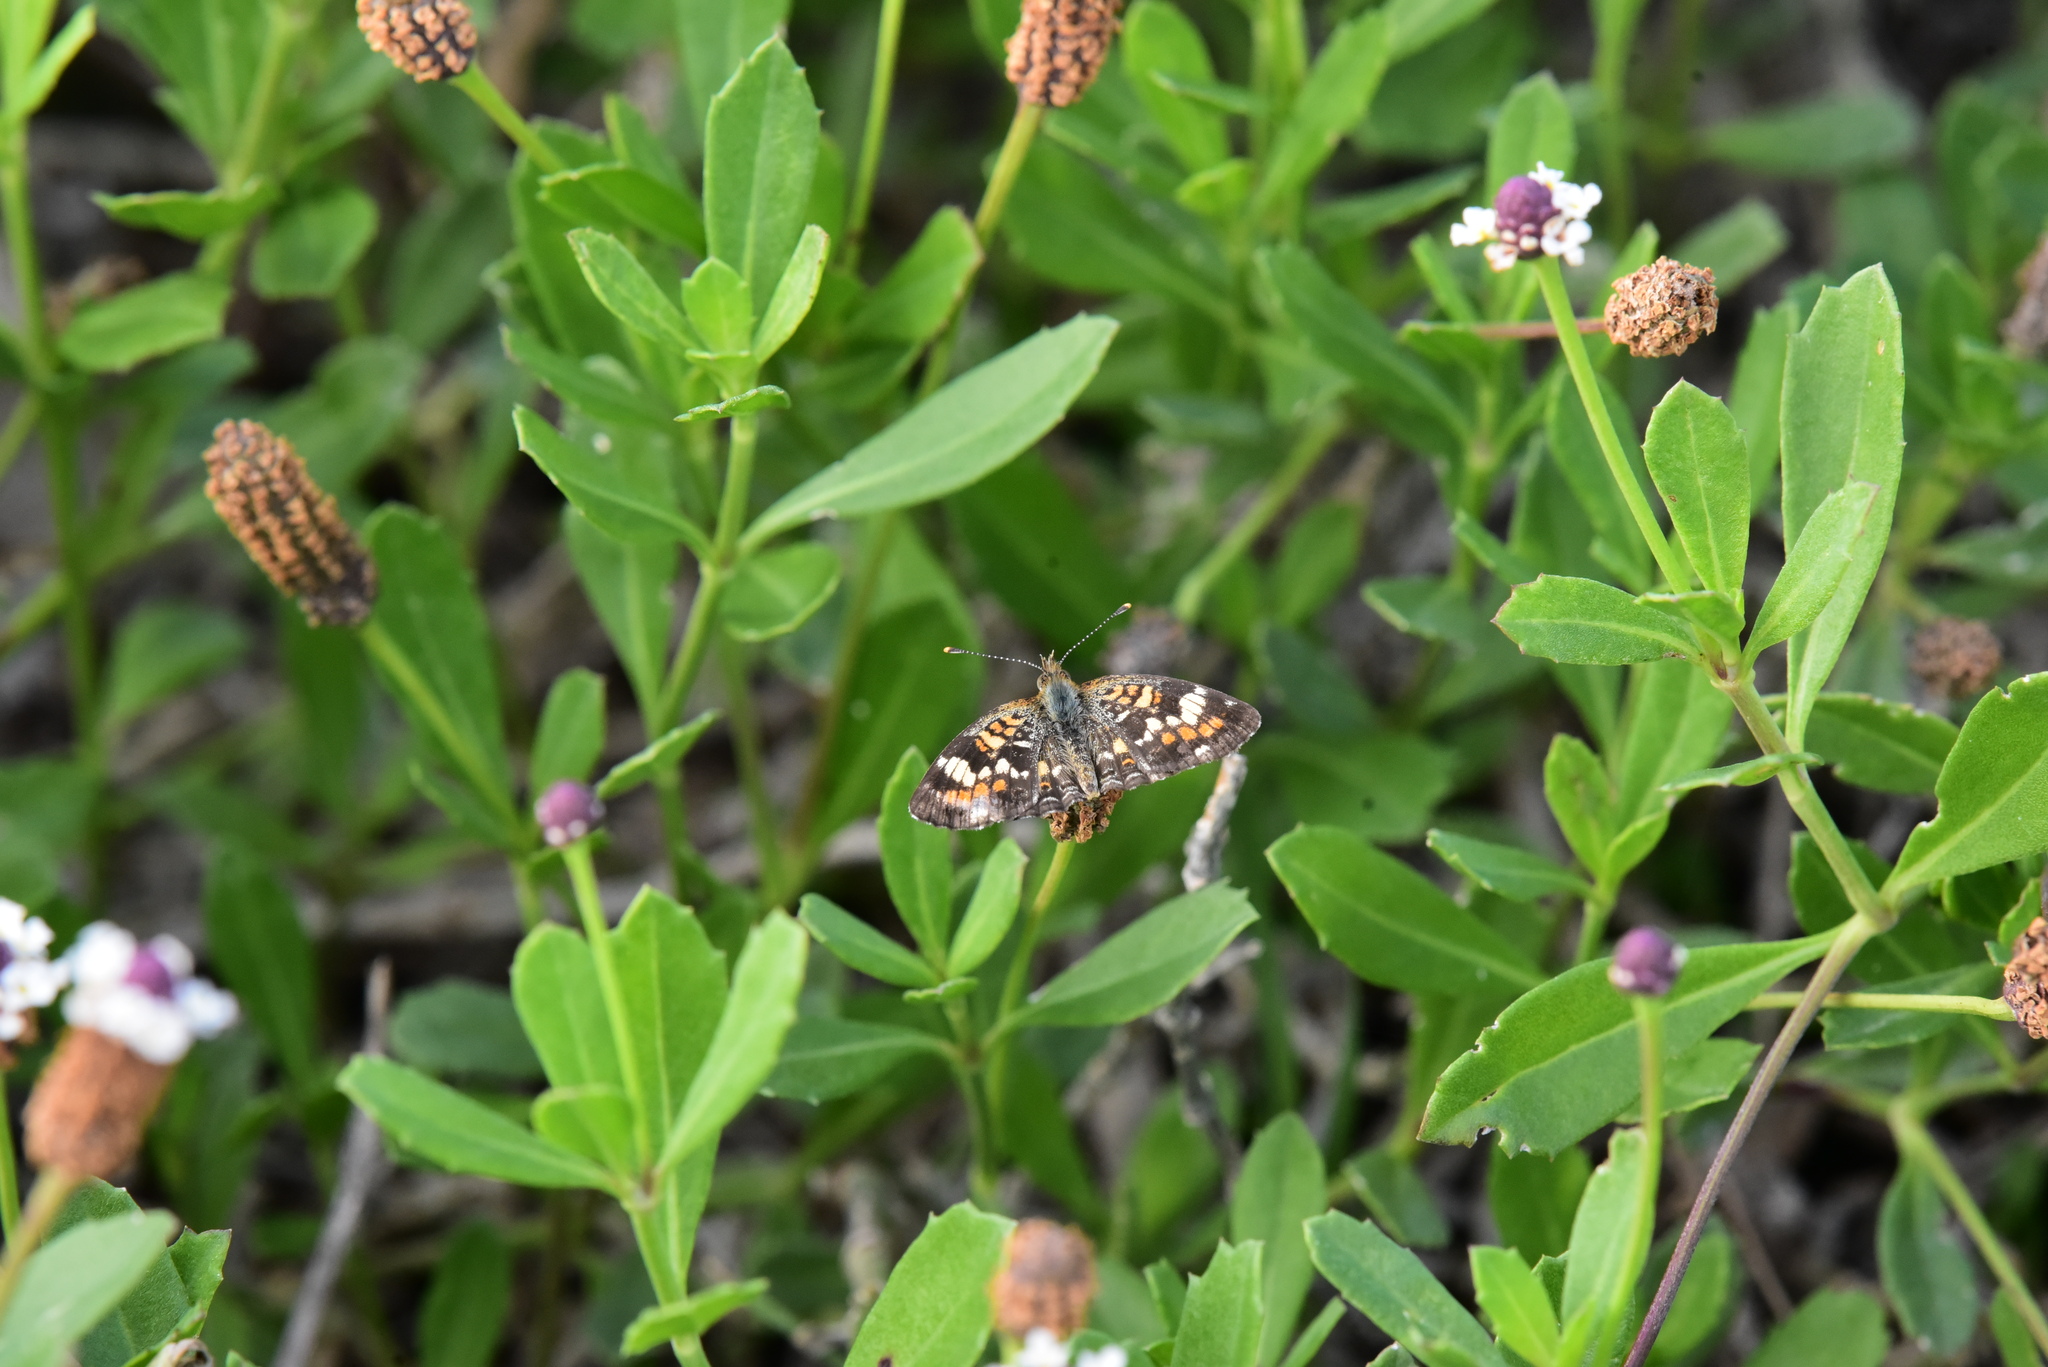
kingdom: Animalia
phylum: Arthropoda
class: Insecta
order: Lepidoptera
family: Nymphalidae
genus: Phyciodes
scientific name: Phyciodes phaon
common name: Phaon crescent
